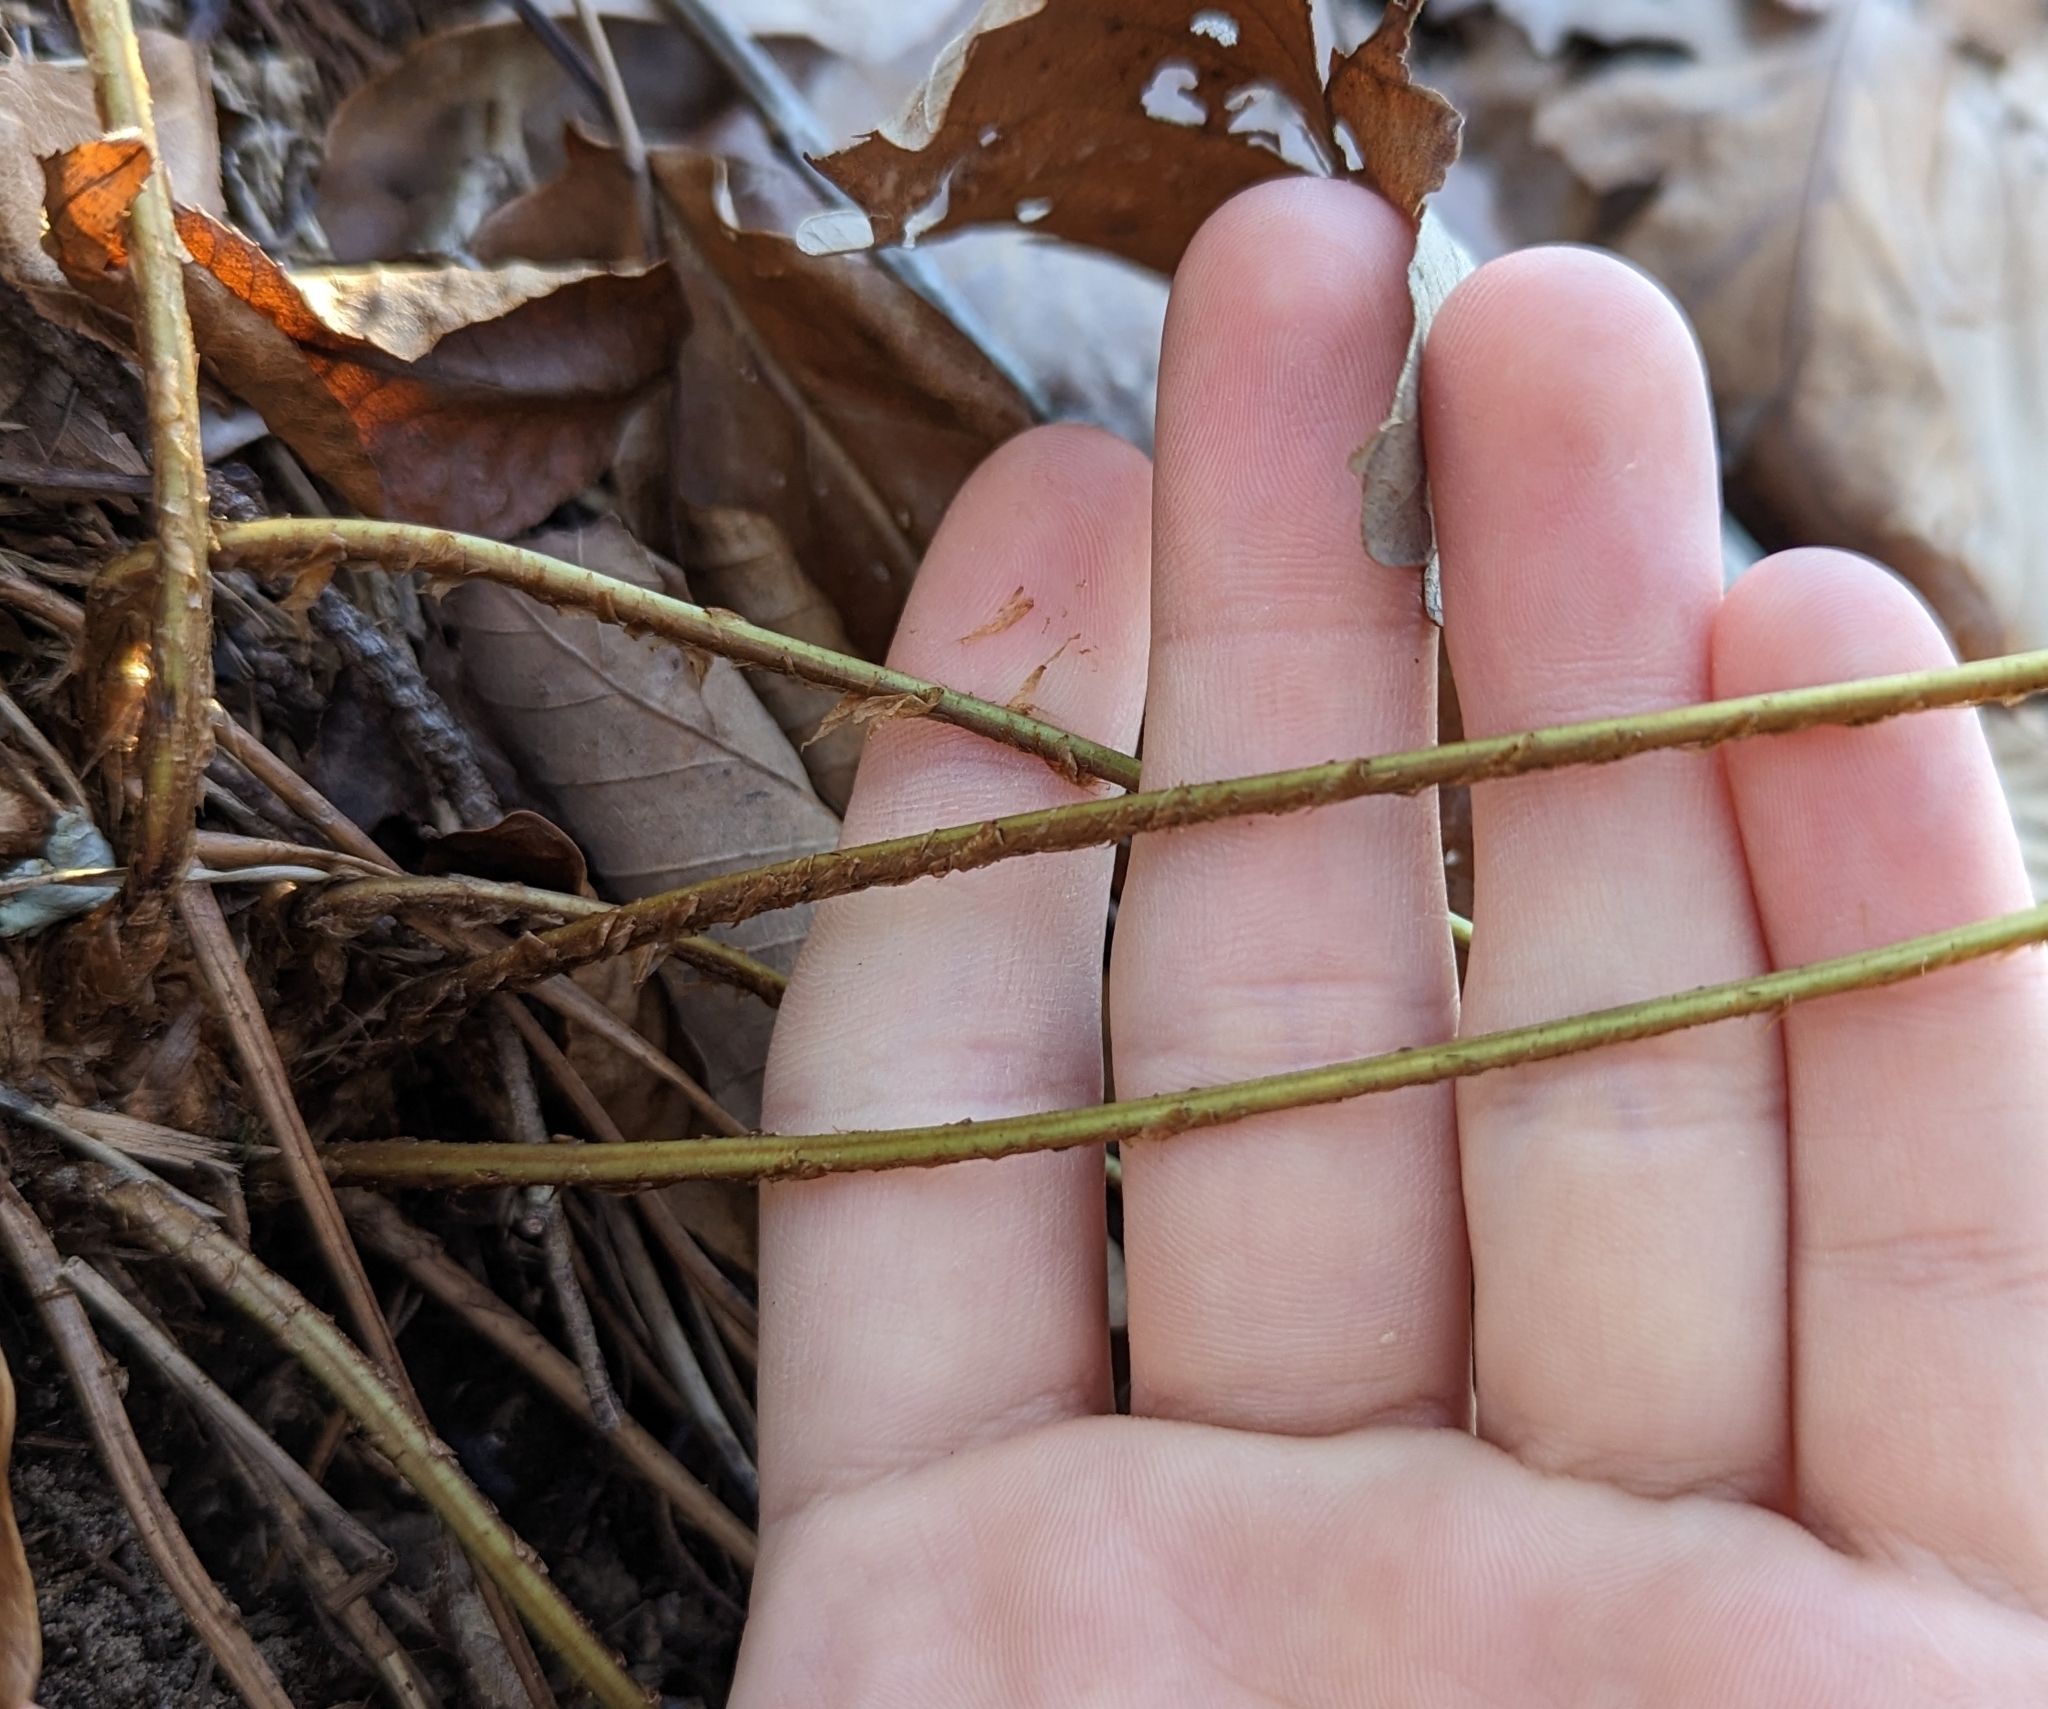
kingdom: Plantae
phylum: Tracheophyta
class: Polypodiopsida
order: Polypodiales
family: Dryopteridaceae
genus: Dryopteris
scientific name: Dryopteris marginalis
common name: Marginal wood fern
